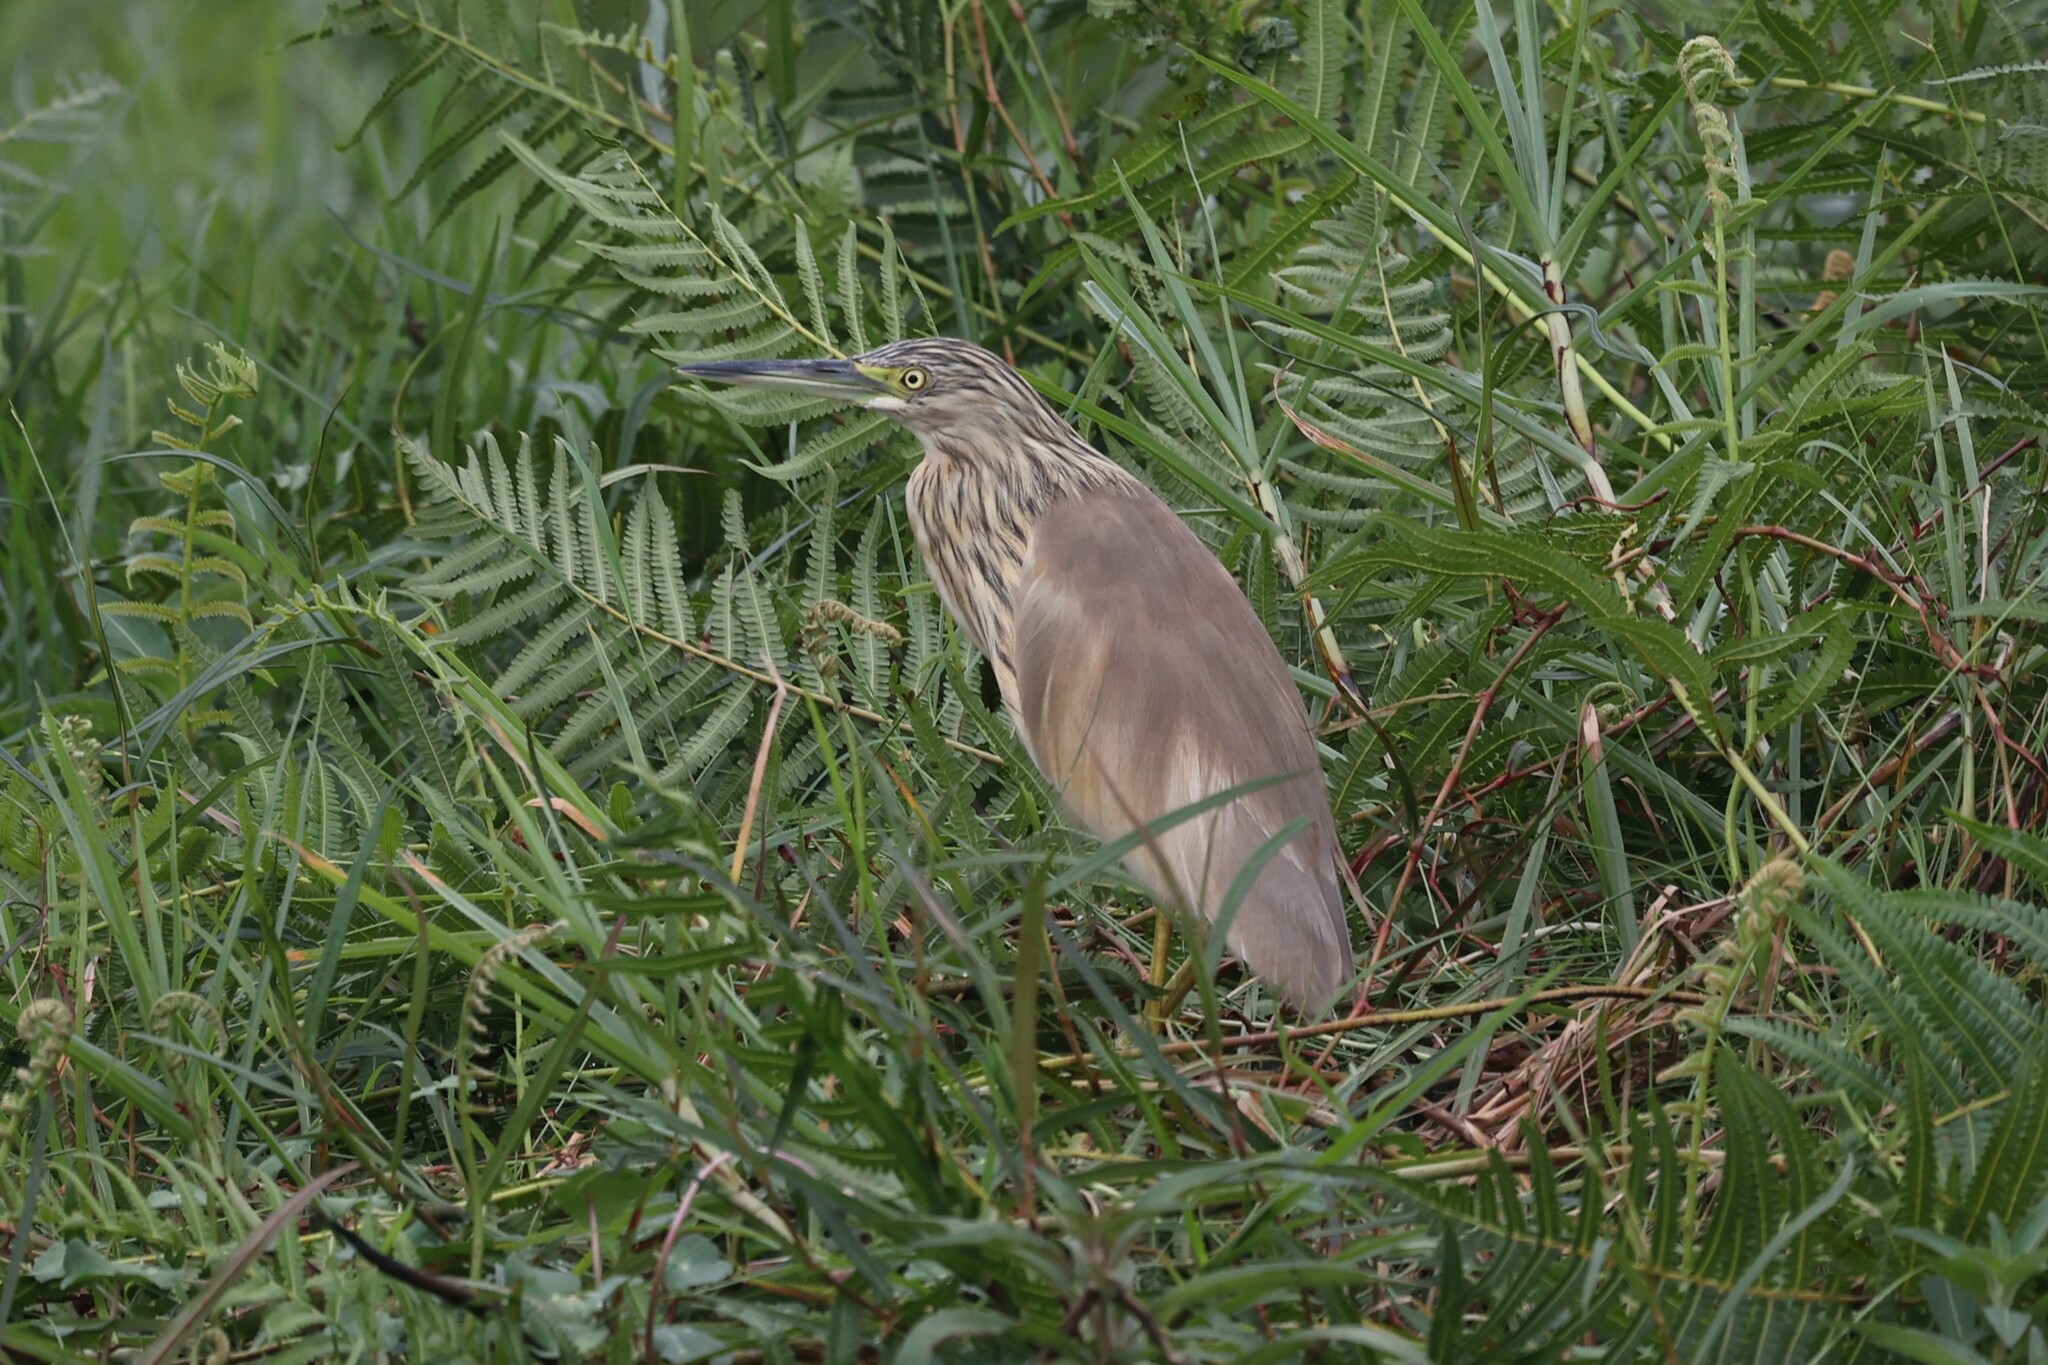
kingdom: Animalia
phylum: Chordata
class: Aves
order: Pelecaniformes
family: Ardeidae
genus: Ardeola
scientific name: Ardeola ralloides
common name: Squacco heron
